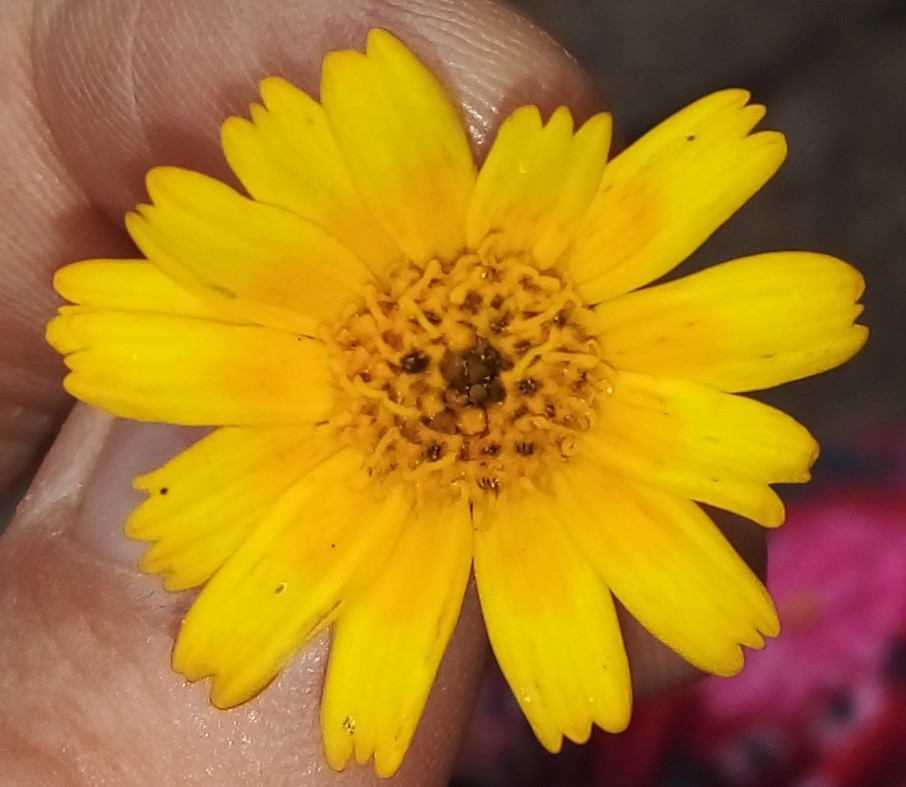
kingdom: Plantae
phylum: Tracheophyta
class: Magnoliopsida
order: Asterales
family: Asteraceae
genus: Sphagneticola
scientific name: Sphagneticola trilobata
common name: Bay biscayne creeping-oxeye
